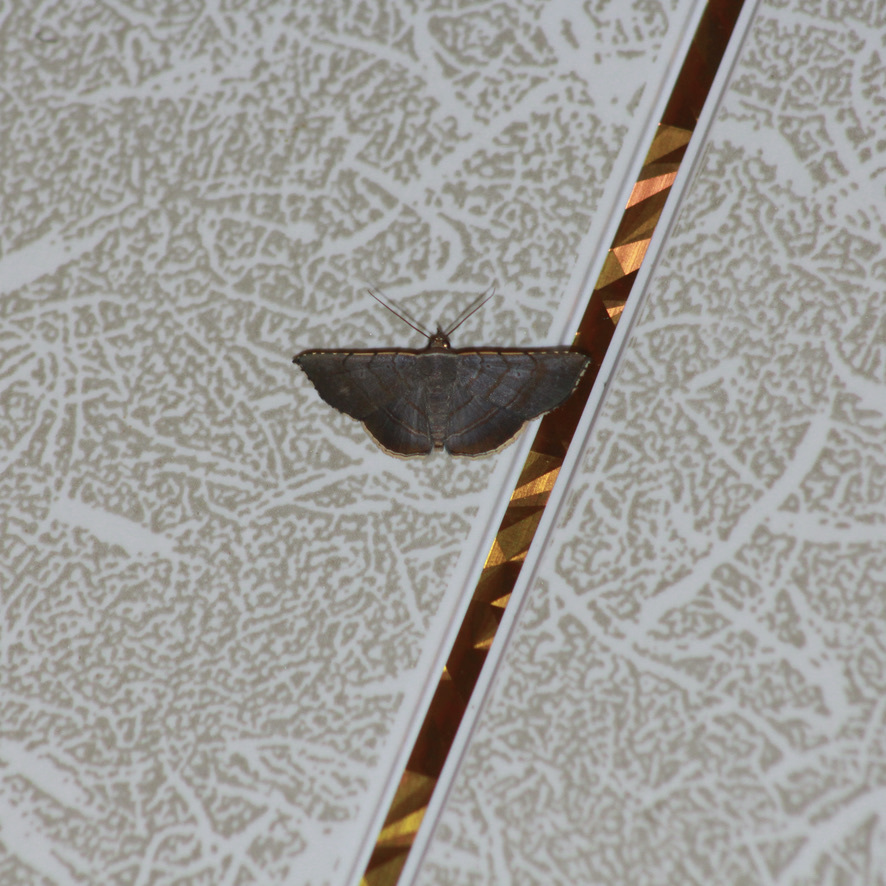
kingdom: Animalia
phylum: Arthropoda
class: Insecta
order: Lepidoptera
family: Erebidae
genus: Clapra
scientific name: Clapra marginata
